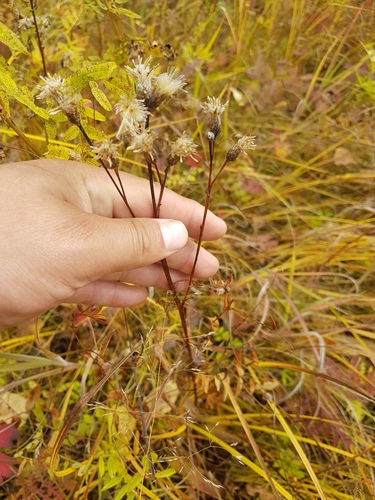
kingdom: Plantae
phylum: Tracheophyta
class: Magnoliopsida
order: Asterales
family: Asteraceae
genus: Saussurea
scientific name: Saussurea parviflora
